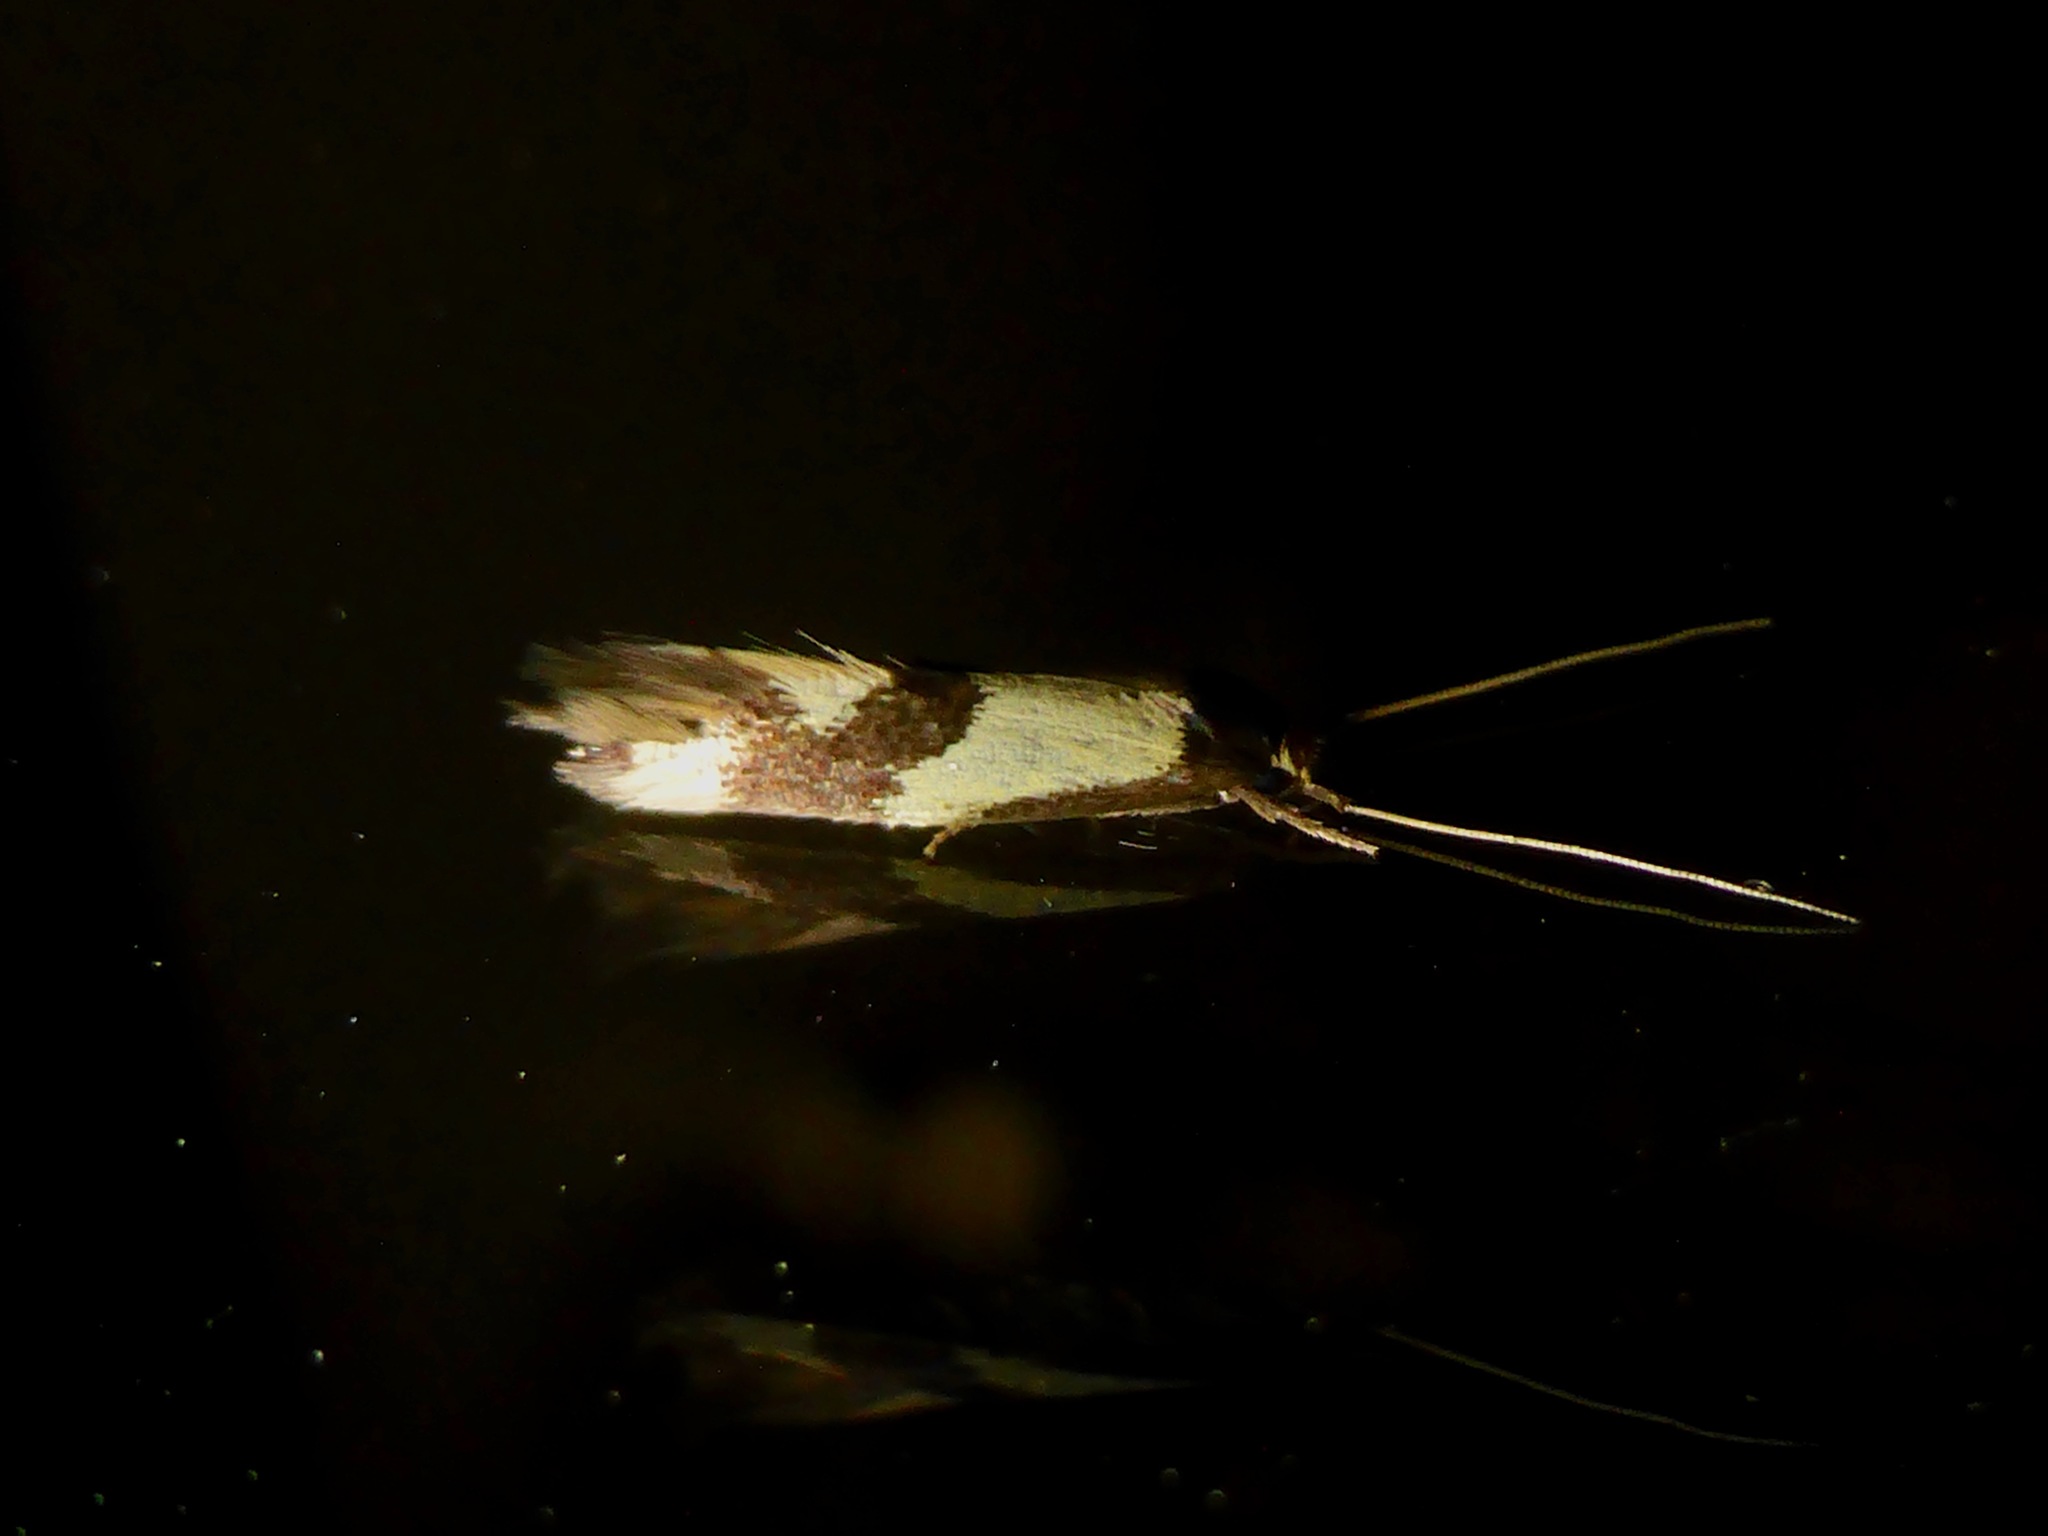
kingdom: Animalia
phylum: Arthropoda
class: Insecta
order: Lepidoptera
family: Tineidae
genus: Opogona
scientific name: Opogona comptella
